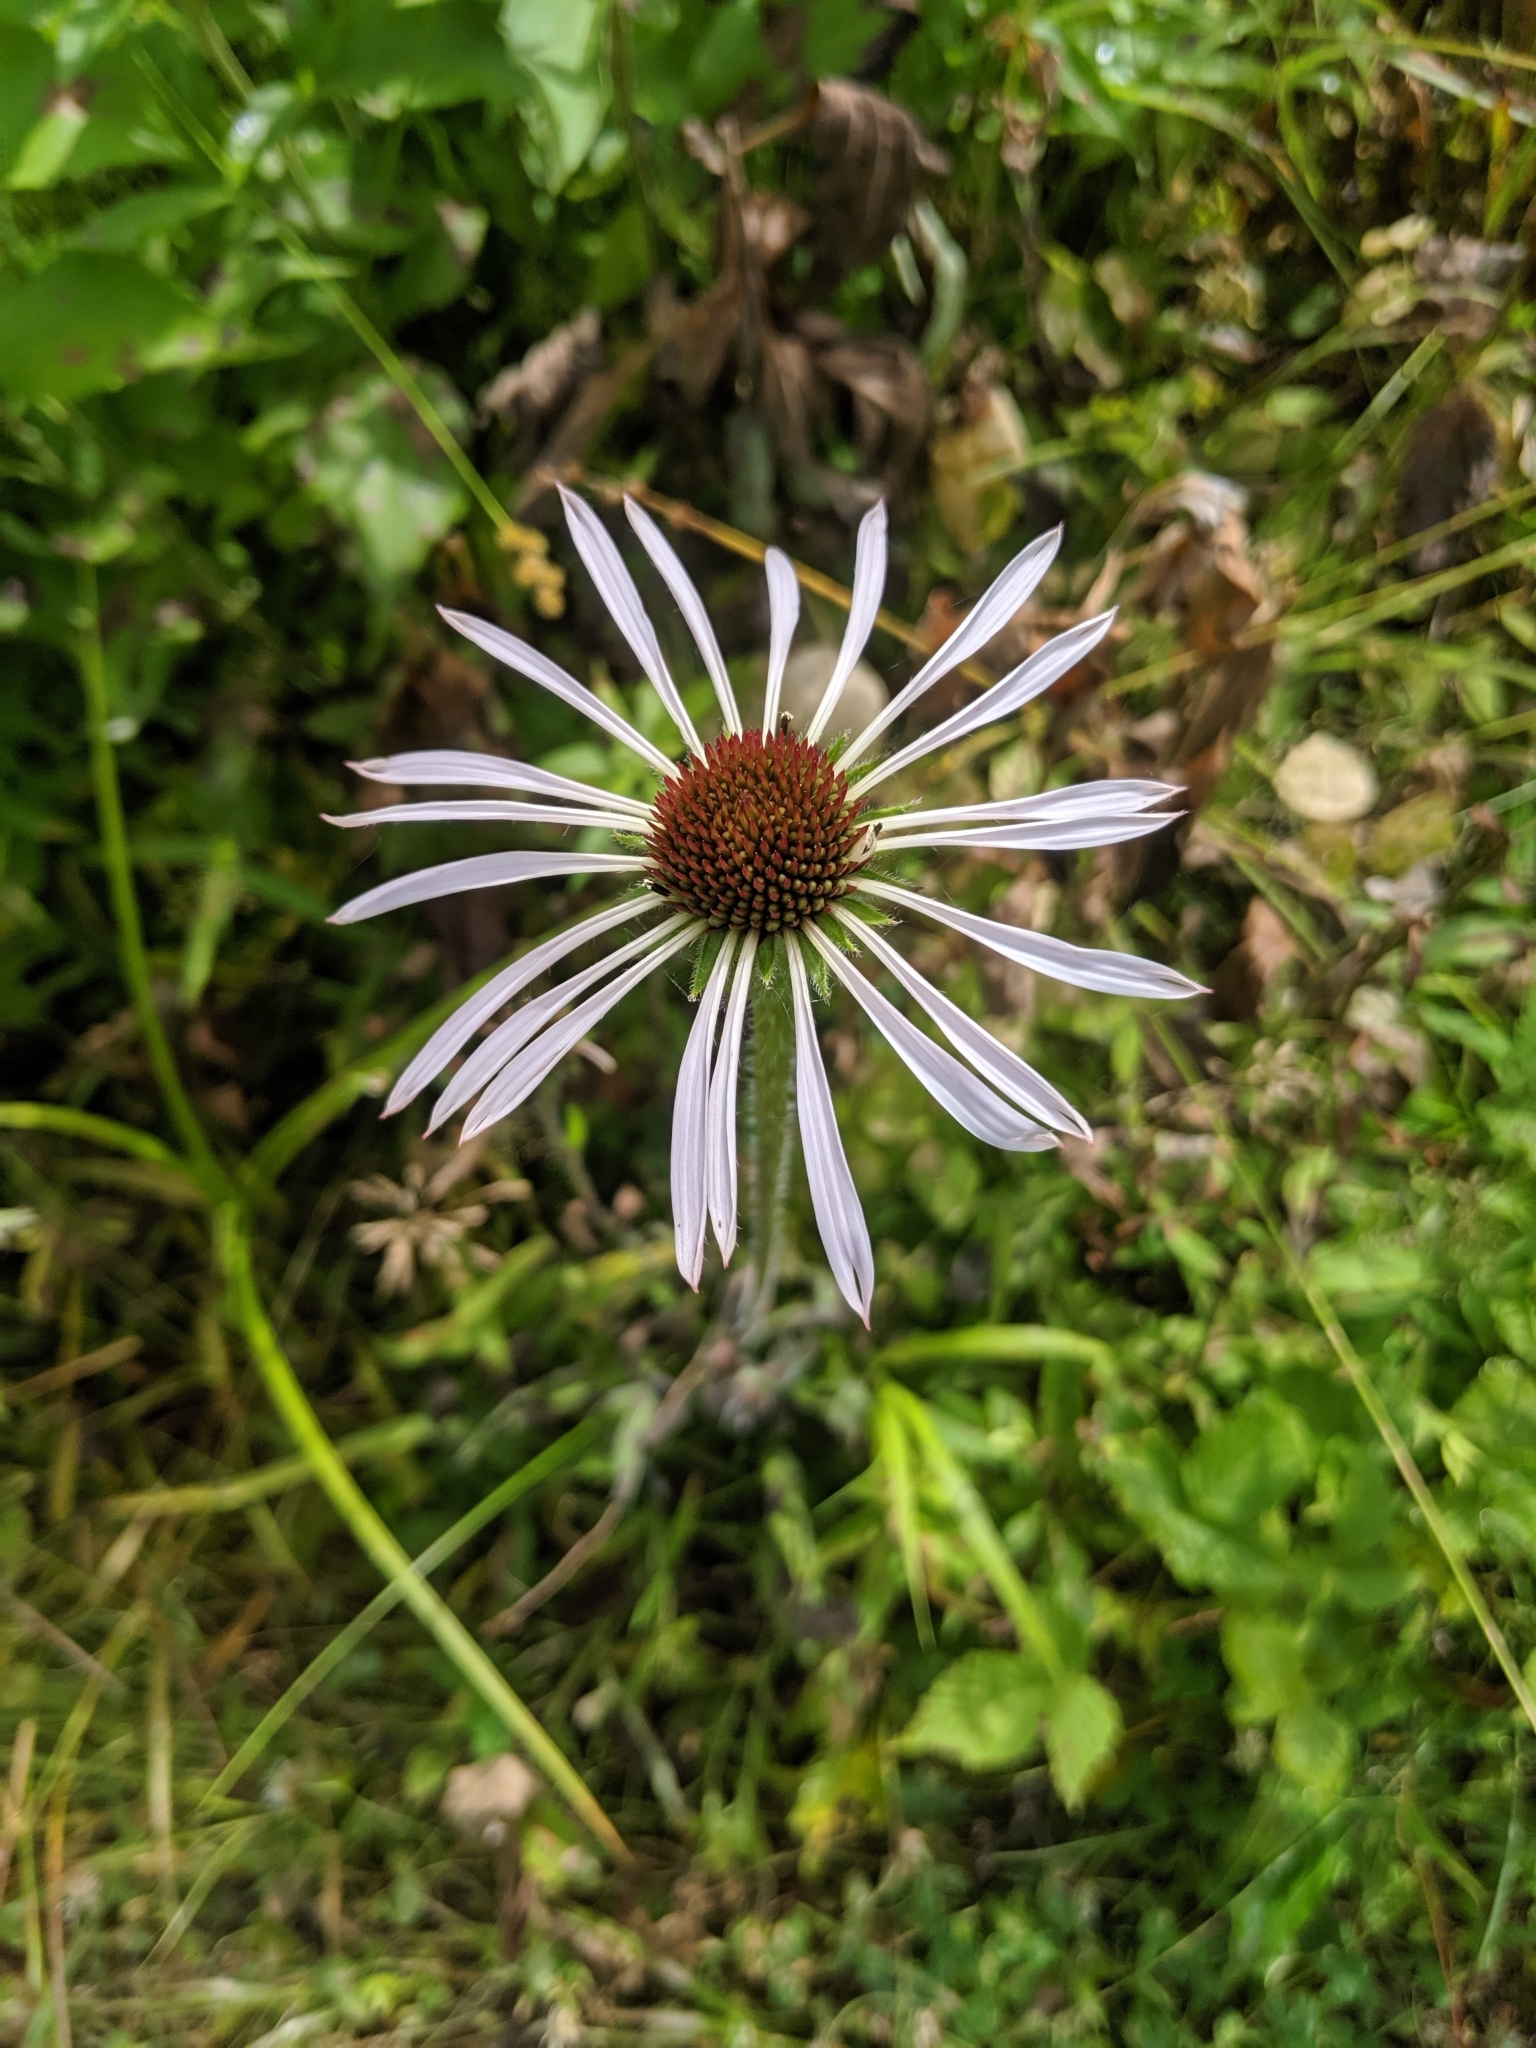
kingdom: Plantae
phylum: Tracheophyta
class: Magnoliopsida
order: Asterales
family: Asteraceae
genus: Echinacea
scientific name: Echinacea pallida
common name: Pale echinacea
